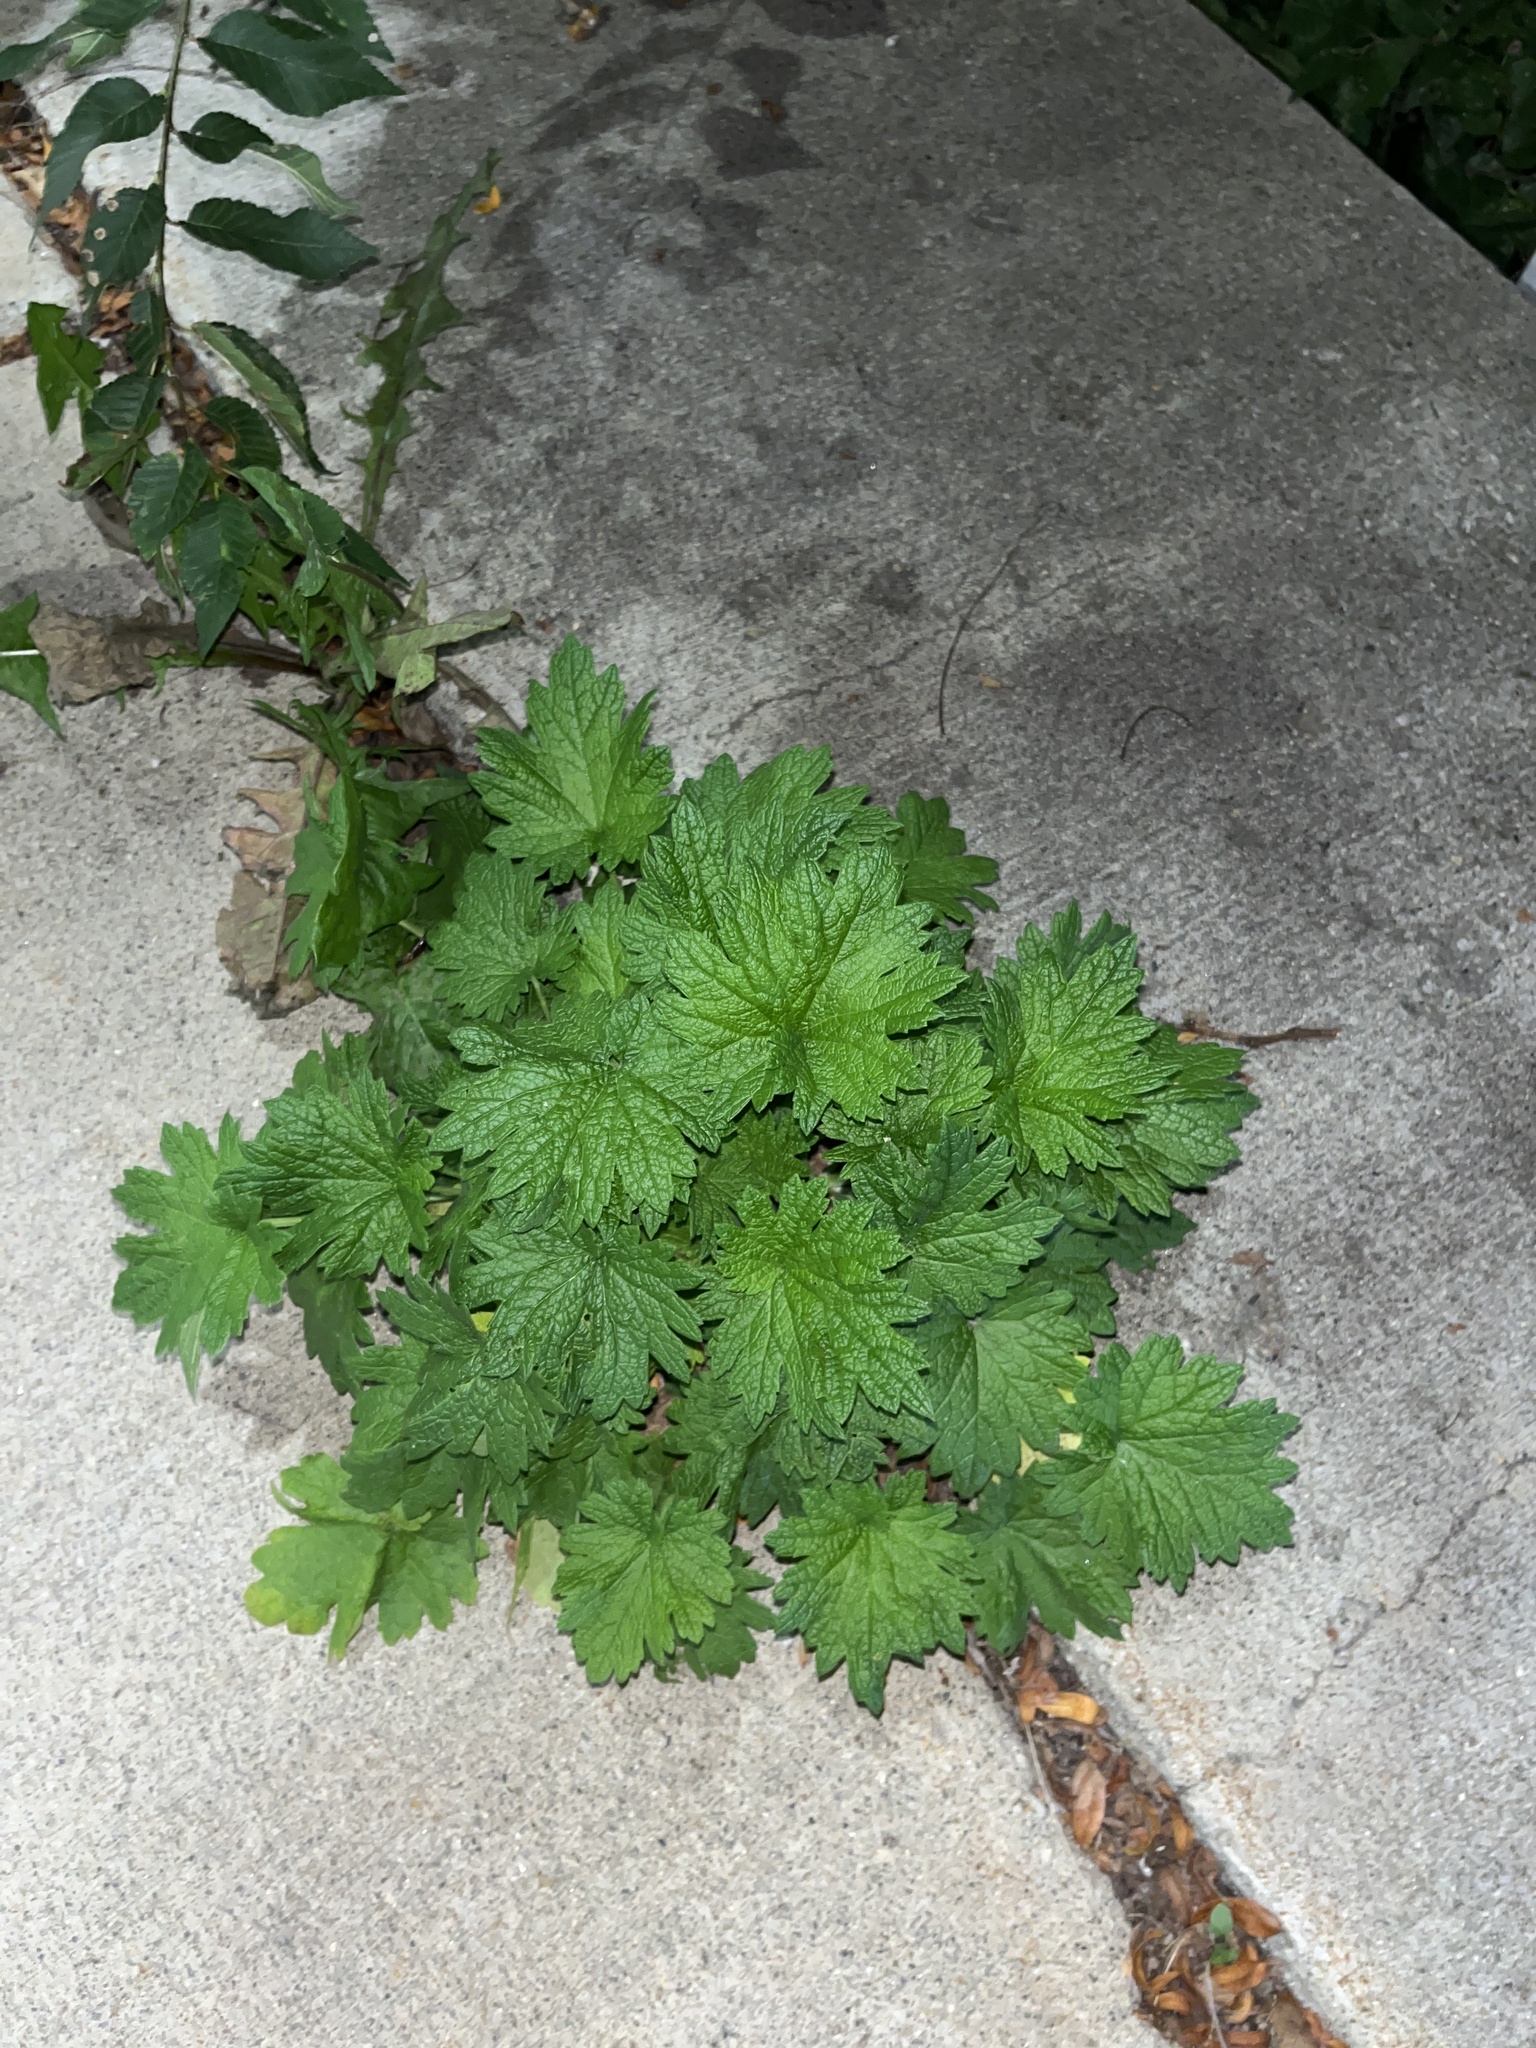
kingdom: Plantae
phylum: Tracheophyta
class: Magnoliopsida
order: Lamiales
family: Lamiaceae
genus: Leonurus
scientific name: Leonurus cardiaca
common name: Motherwort
